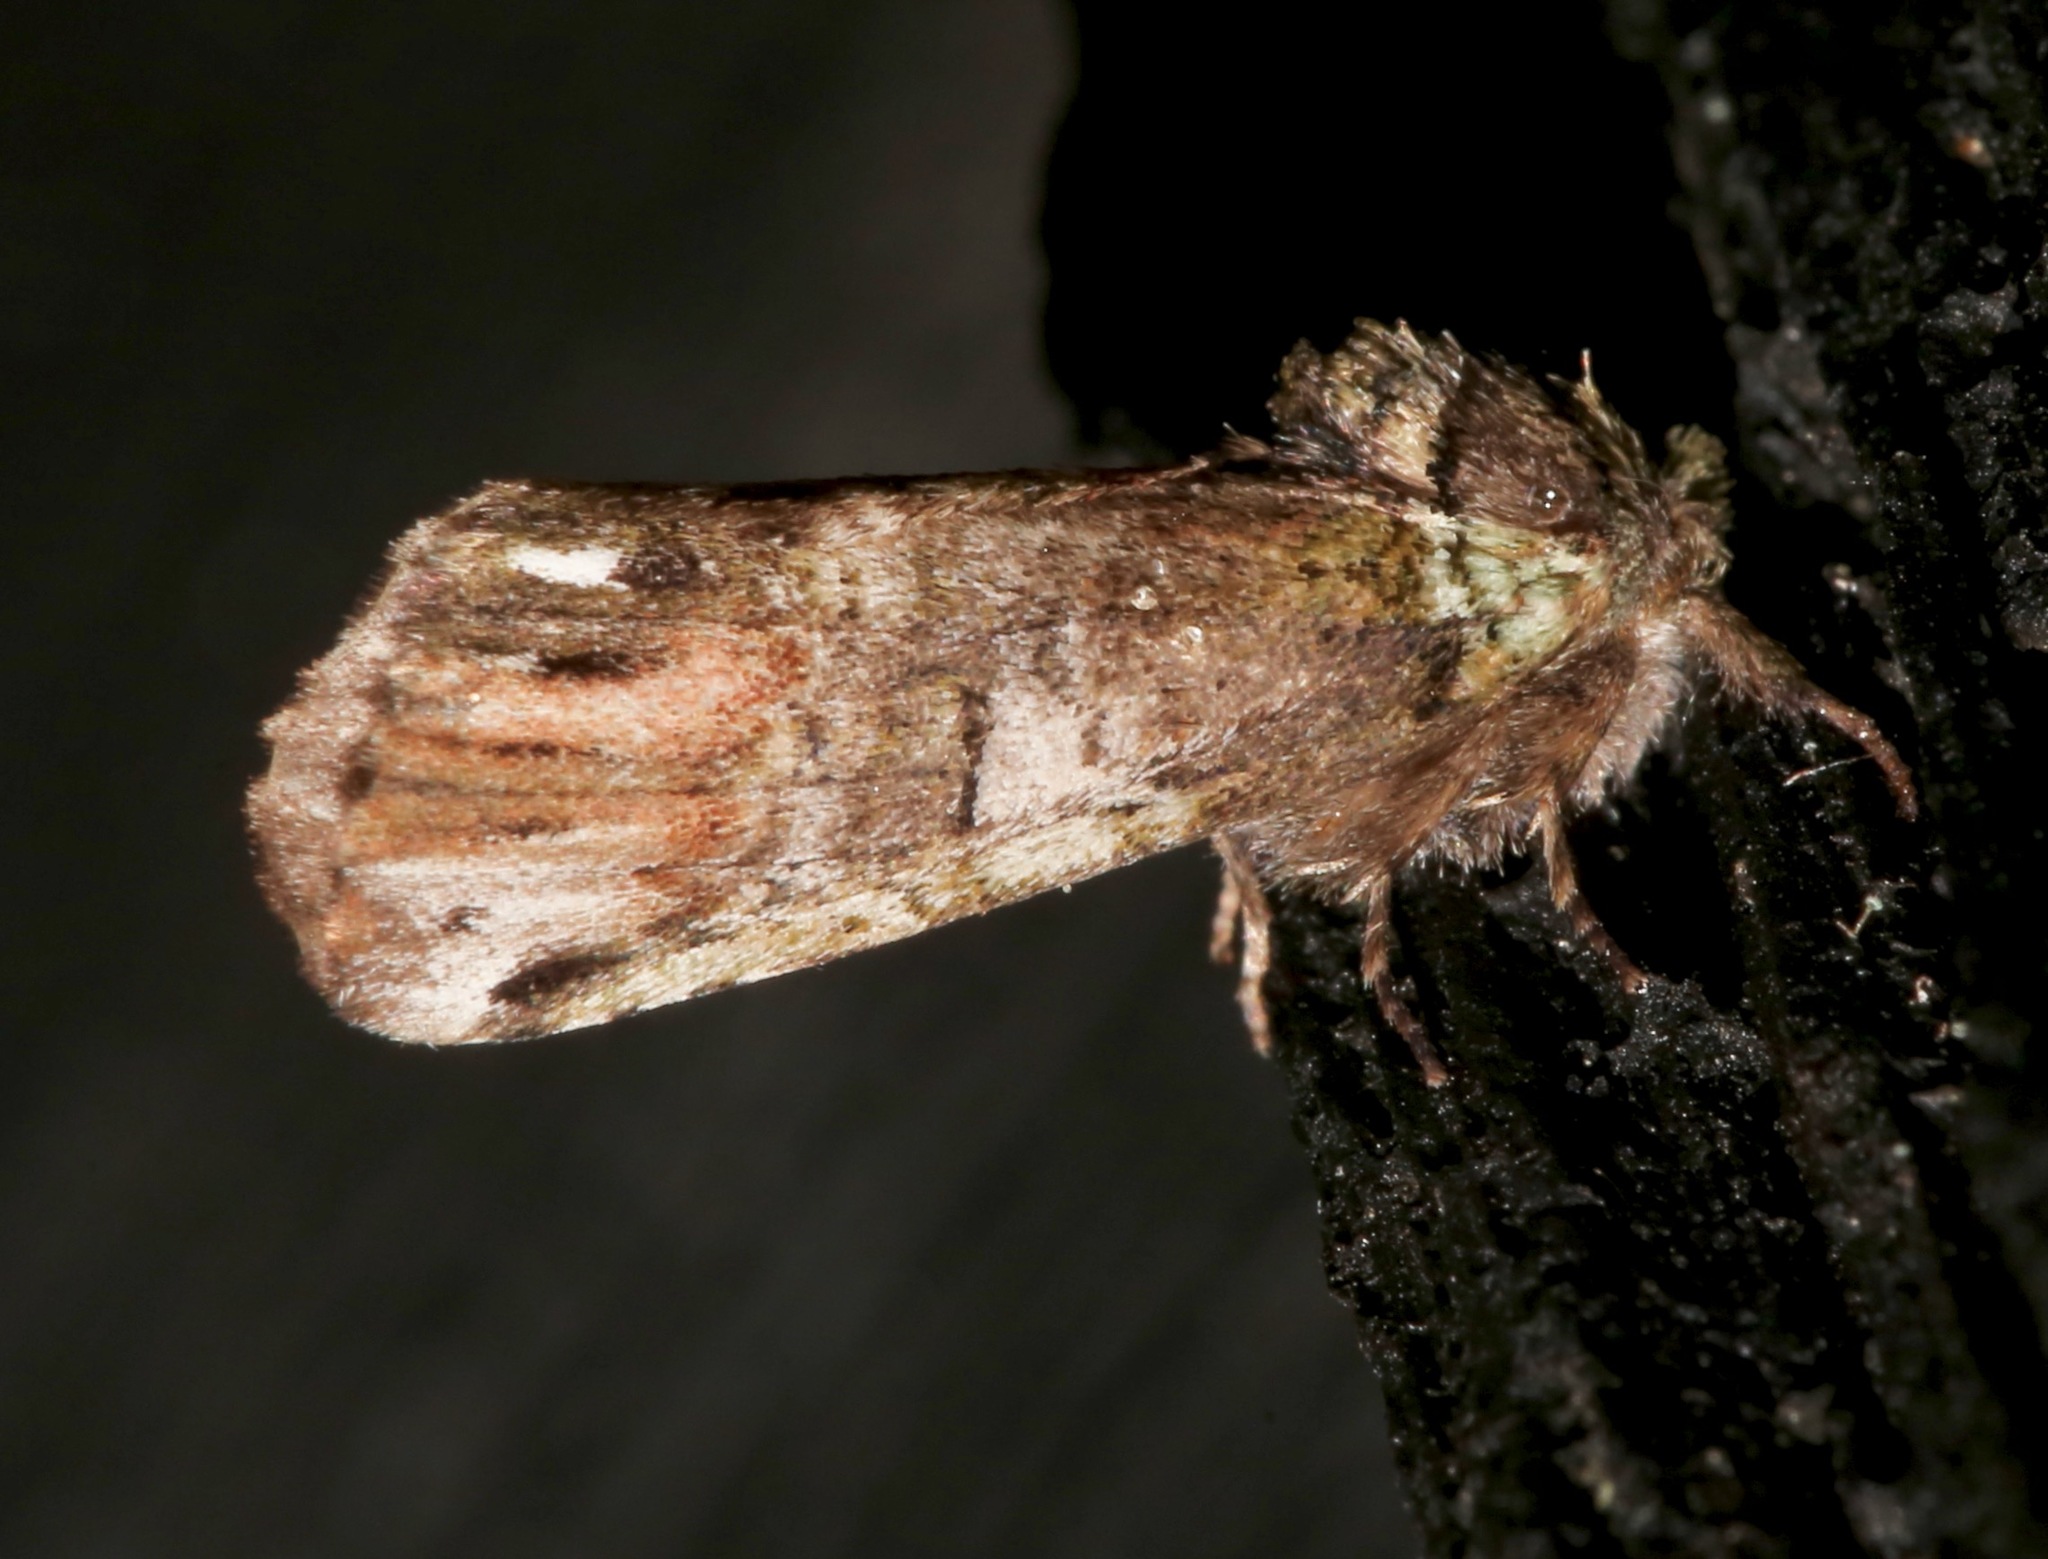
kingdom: Animalia
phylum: Arthropoda
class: Insecta
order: Lepidoptera
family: Notodontidae
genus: Schizura
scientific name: Schizura
